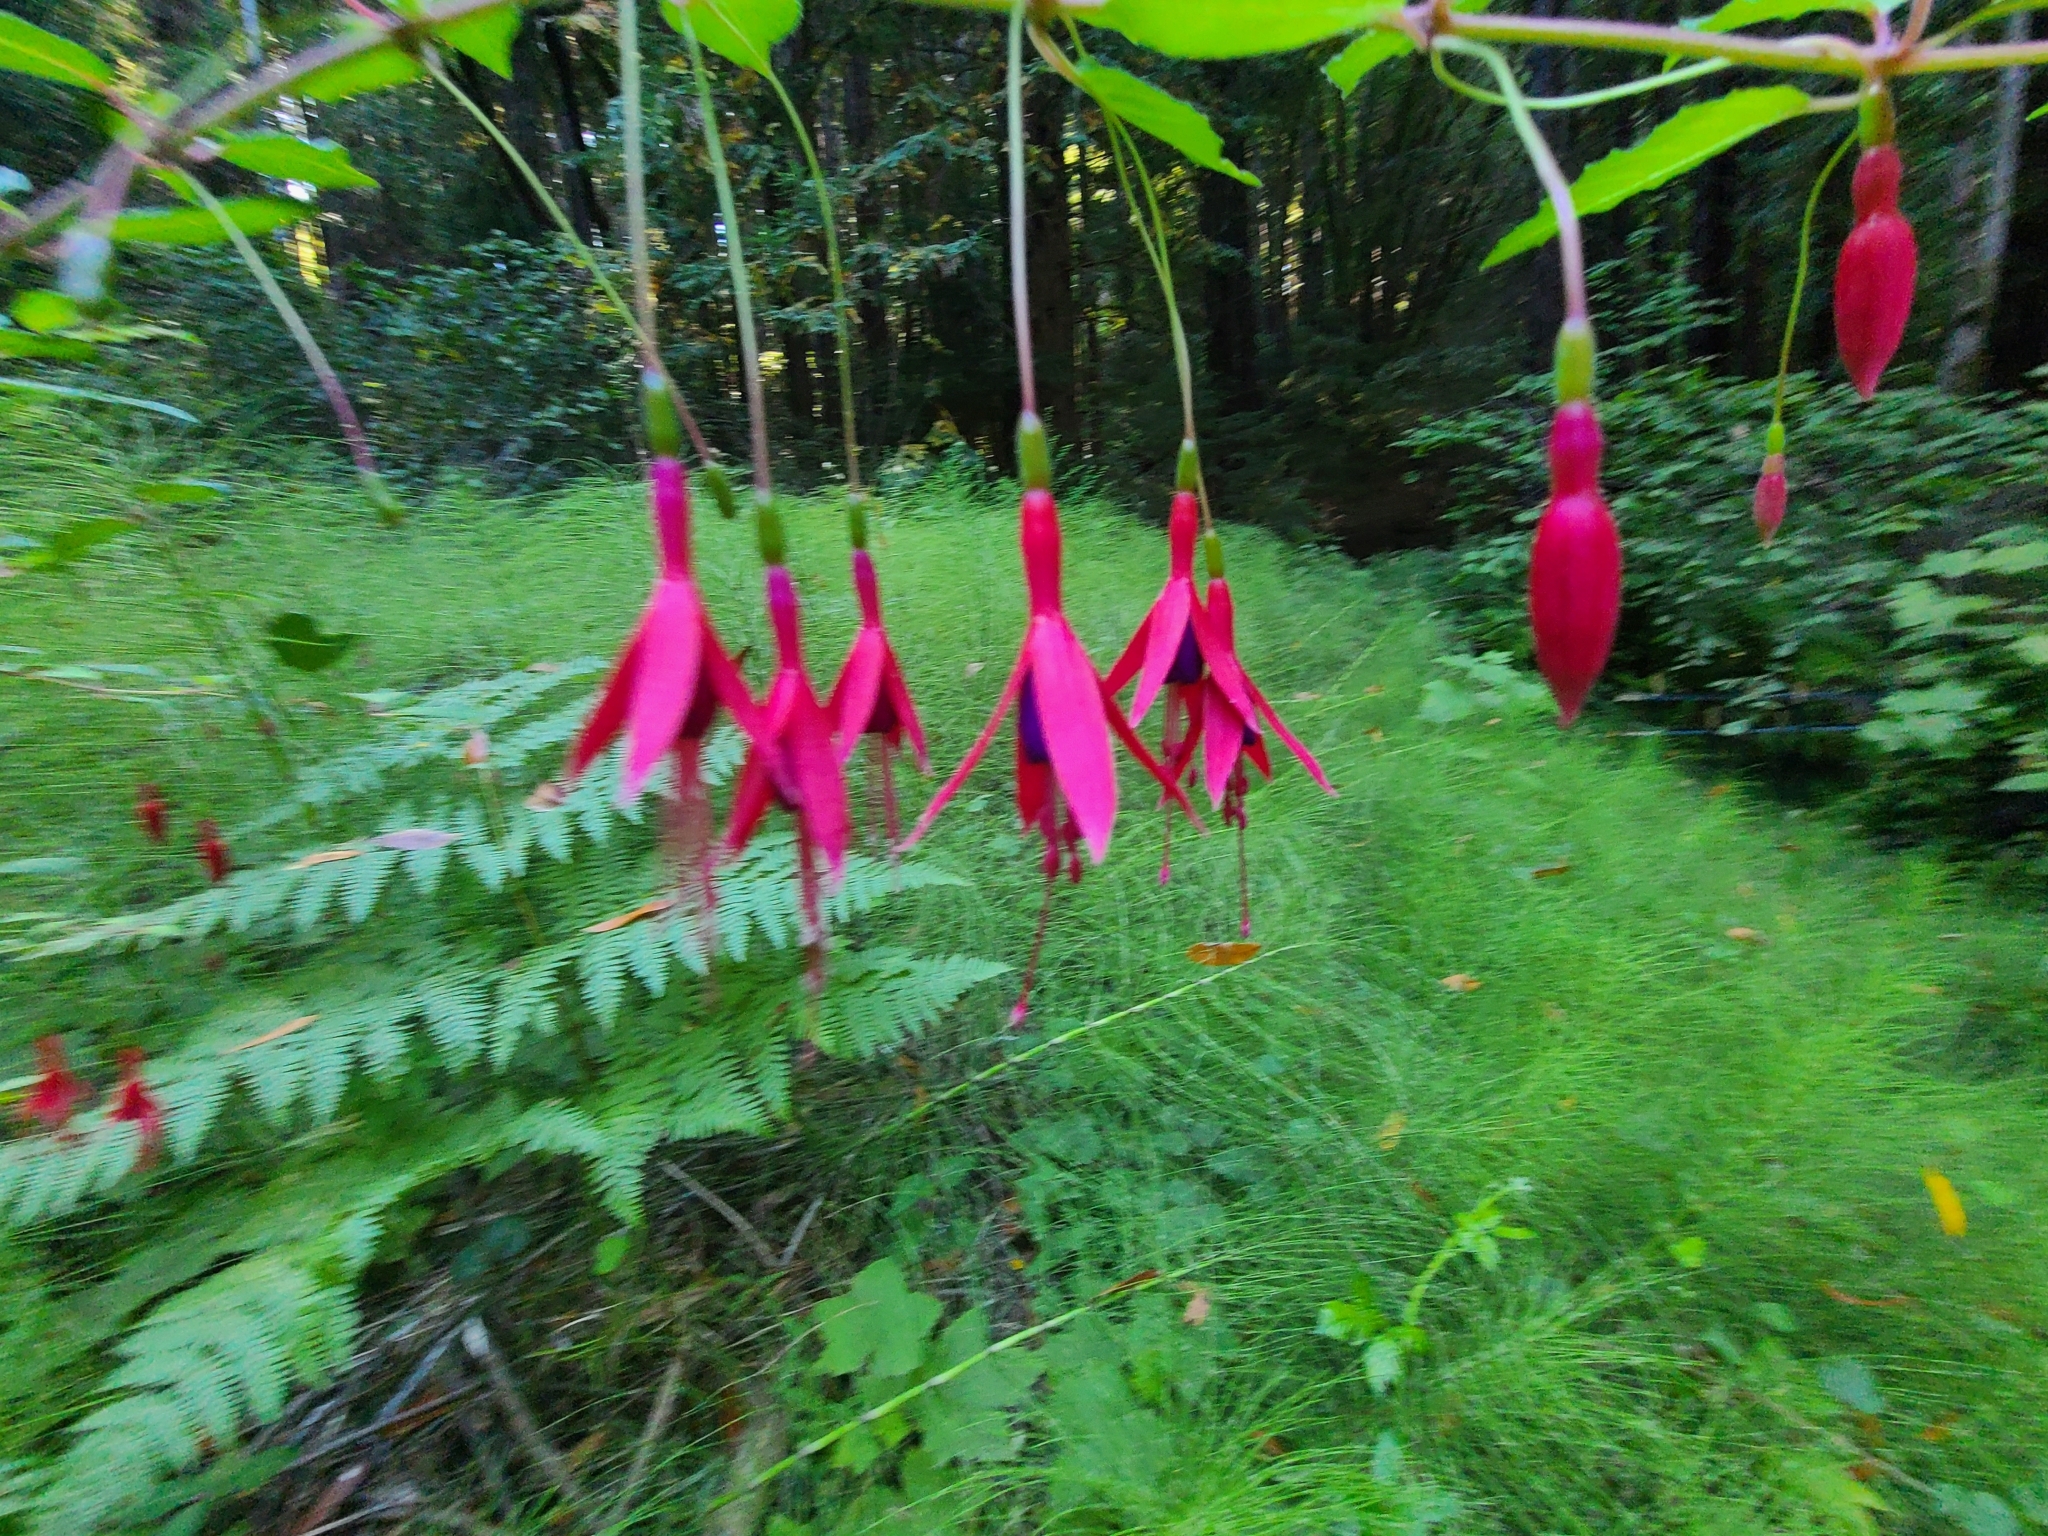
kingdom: Plantae
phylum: Tracheophyta
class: Magnoliopsida
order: Myrtales
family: Onagraceae
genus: Fuchsia
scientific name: Fuchsia magellanica
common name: Hardy fuchsia
